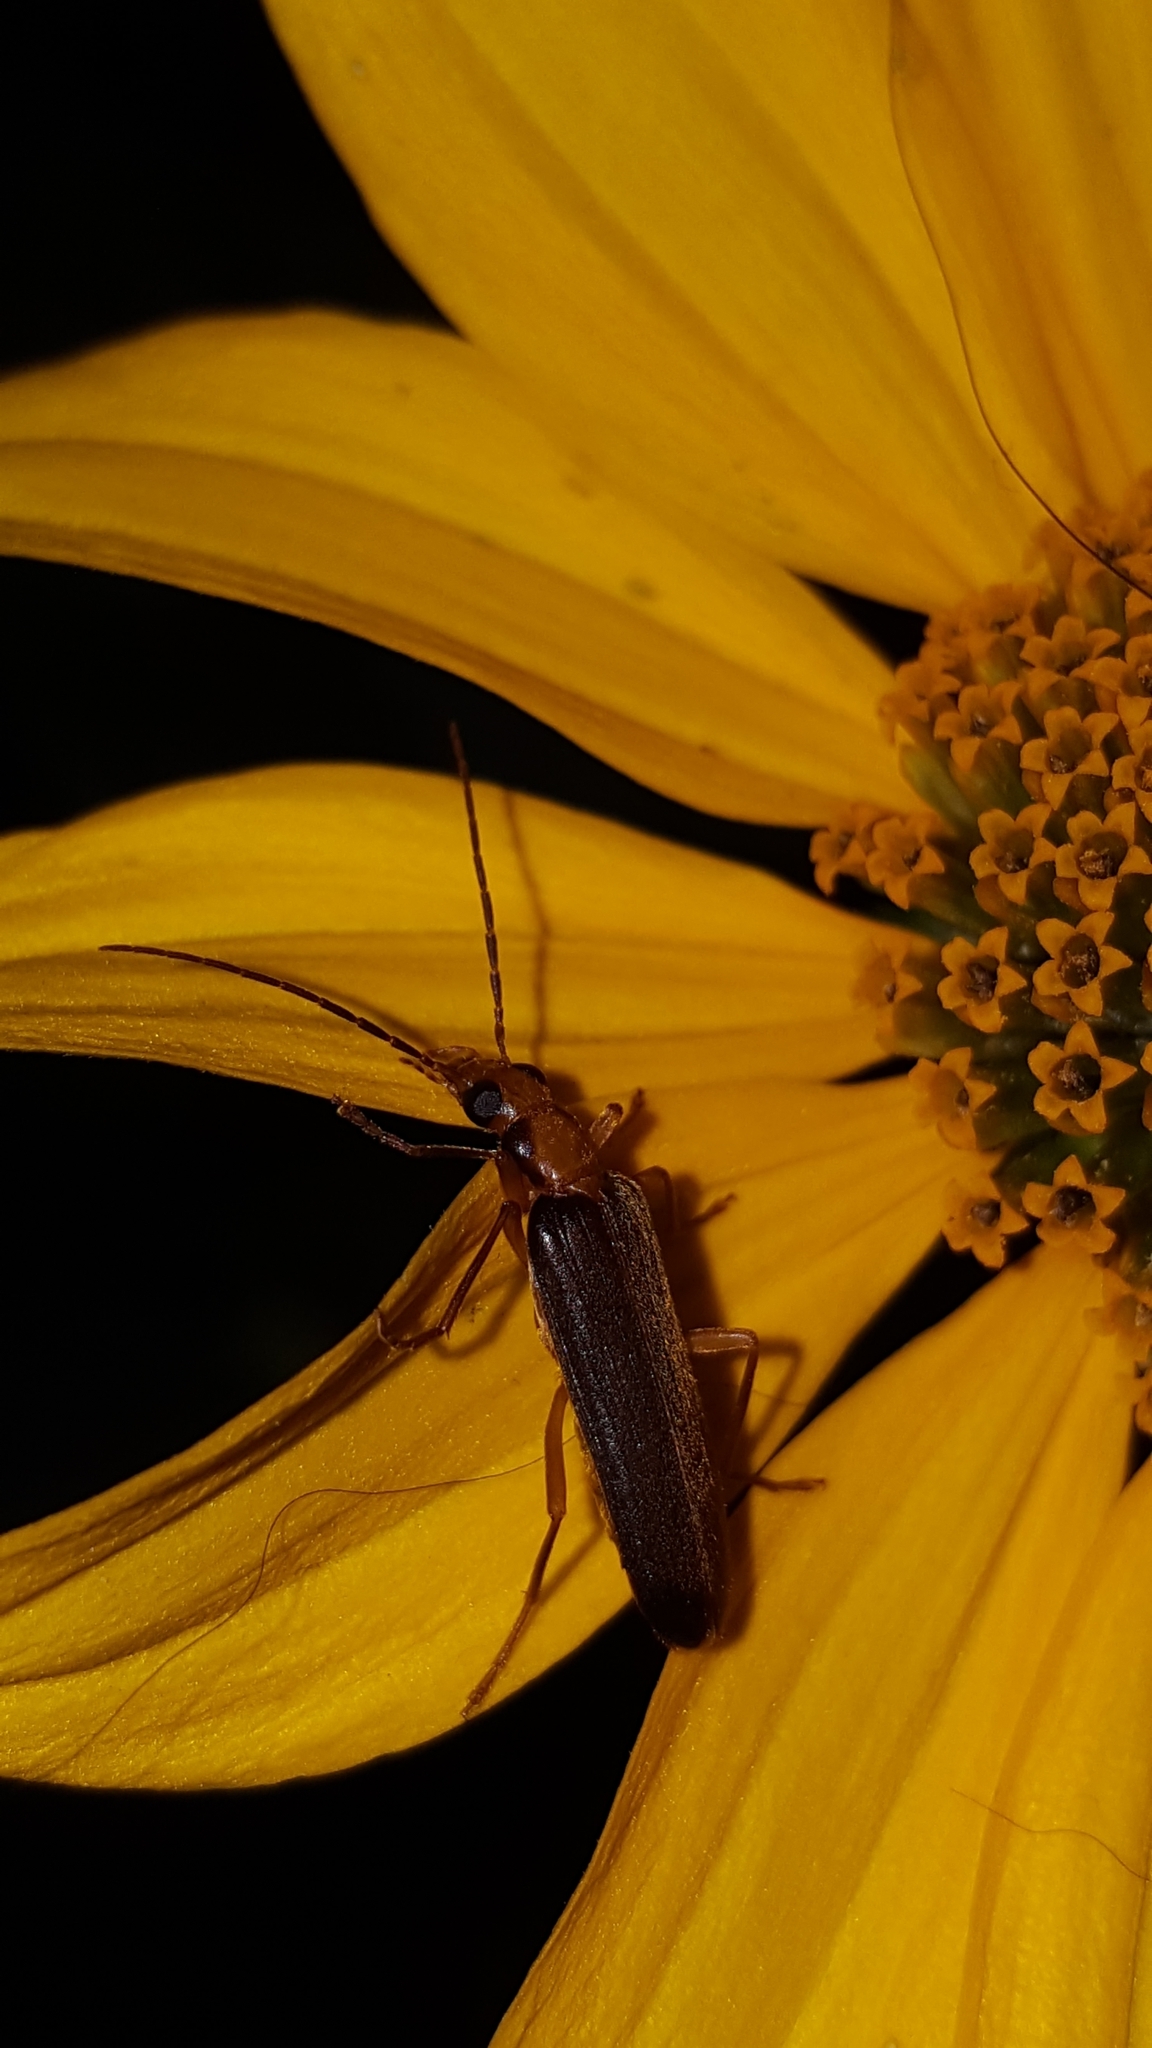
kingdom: Animalia
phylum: Arthropoda
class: Insecta
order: Coleoptera
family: Oedemeridae
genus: Nacerdes
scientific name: Nacerdes carniolica
